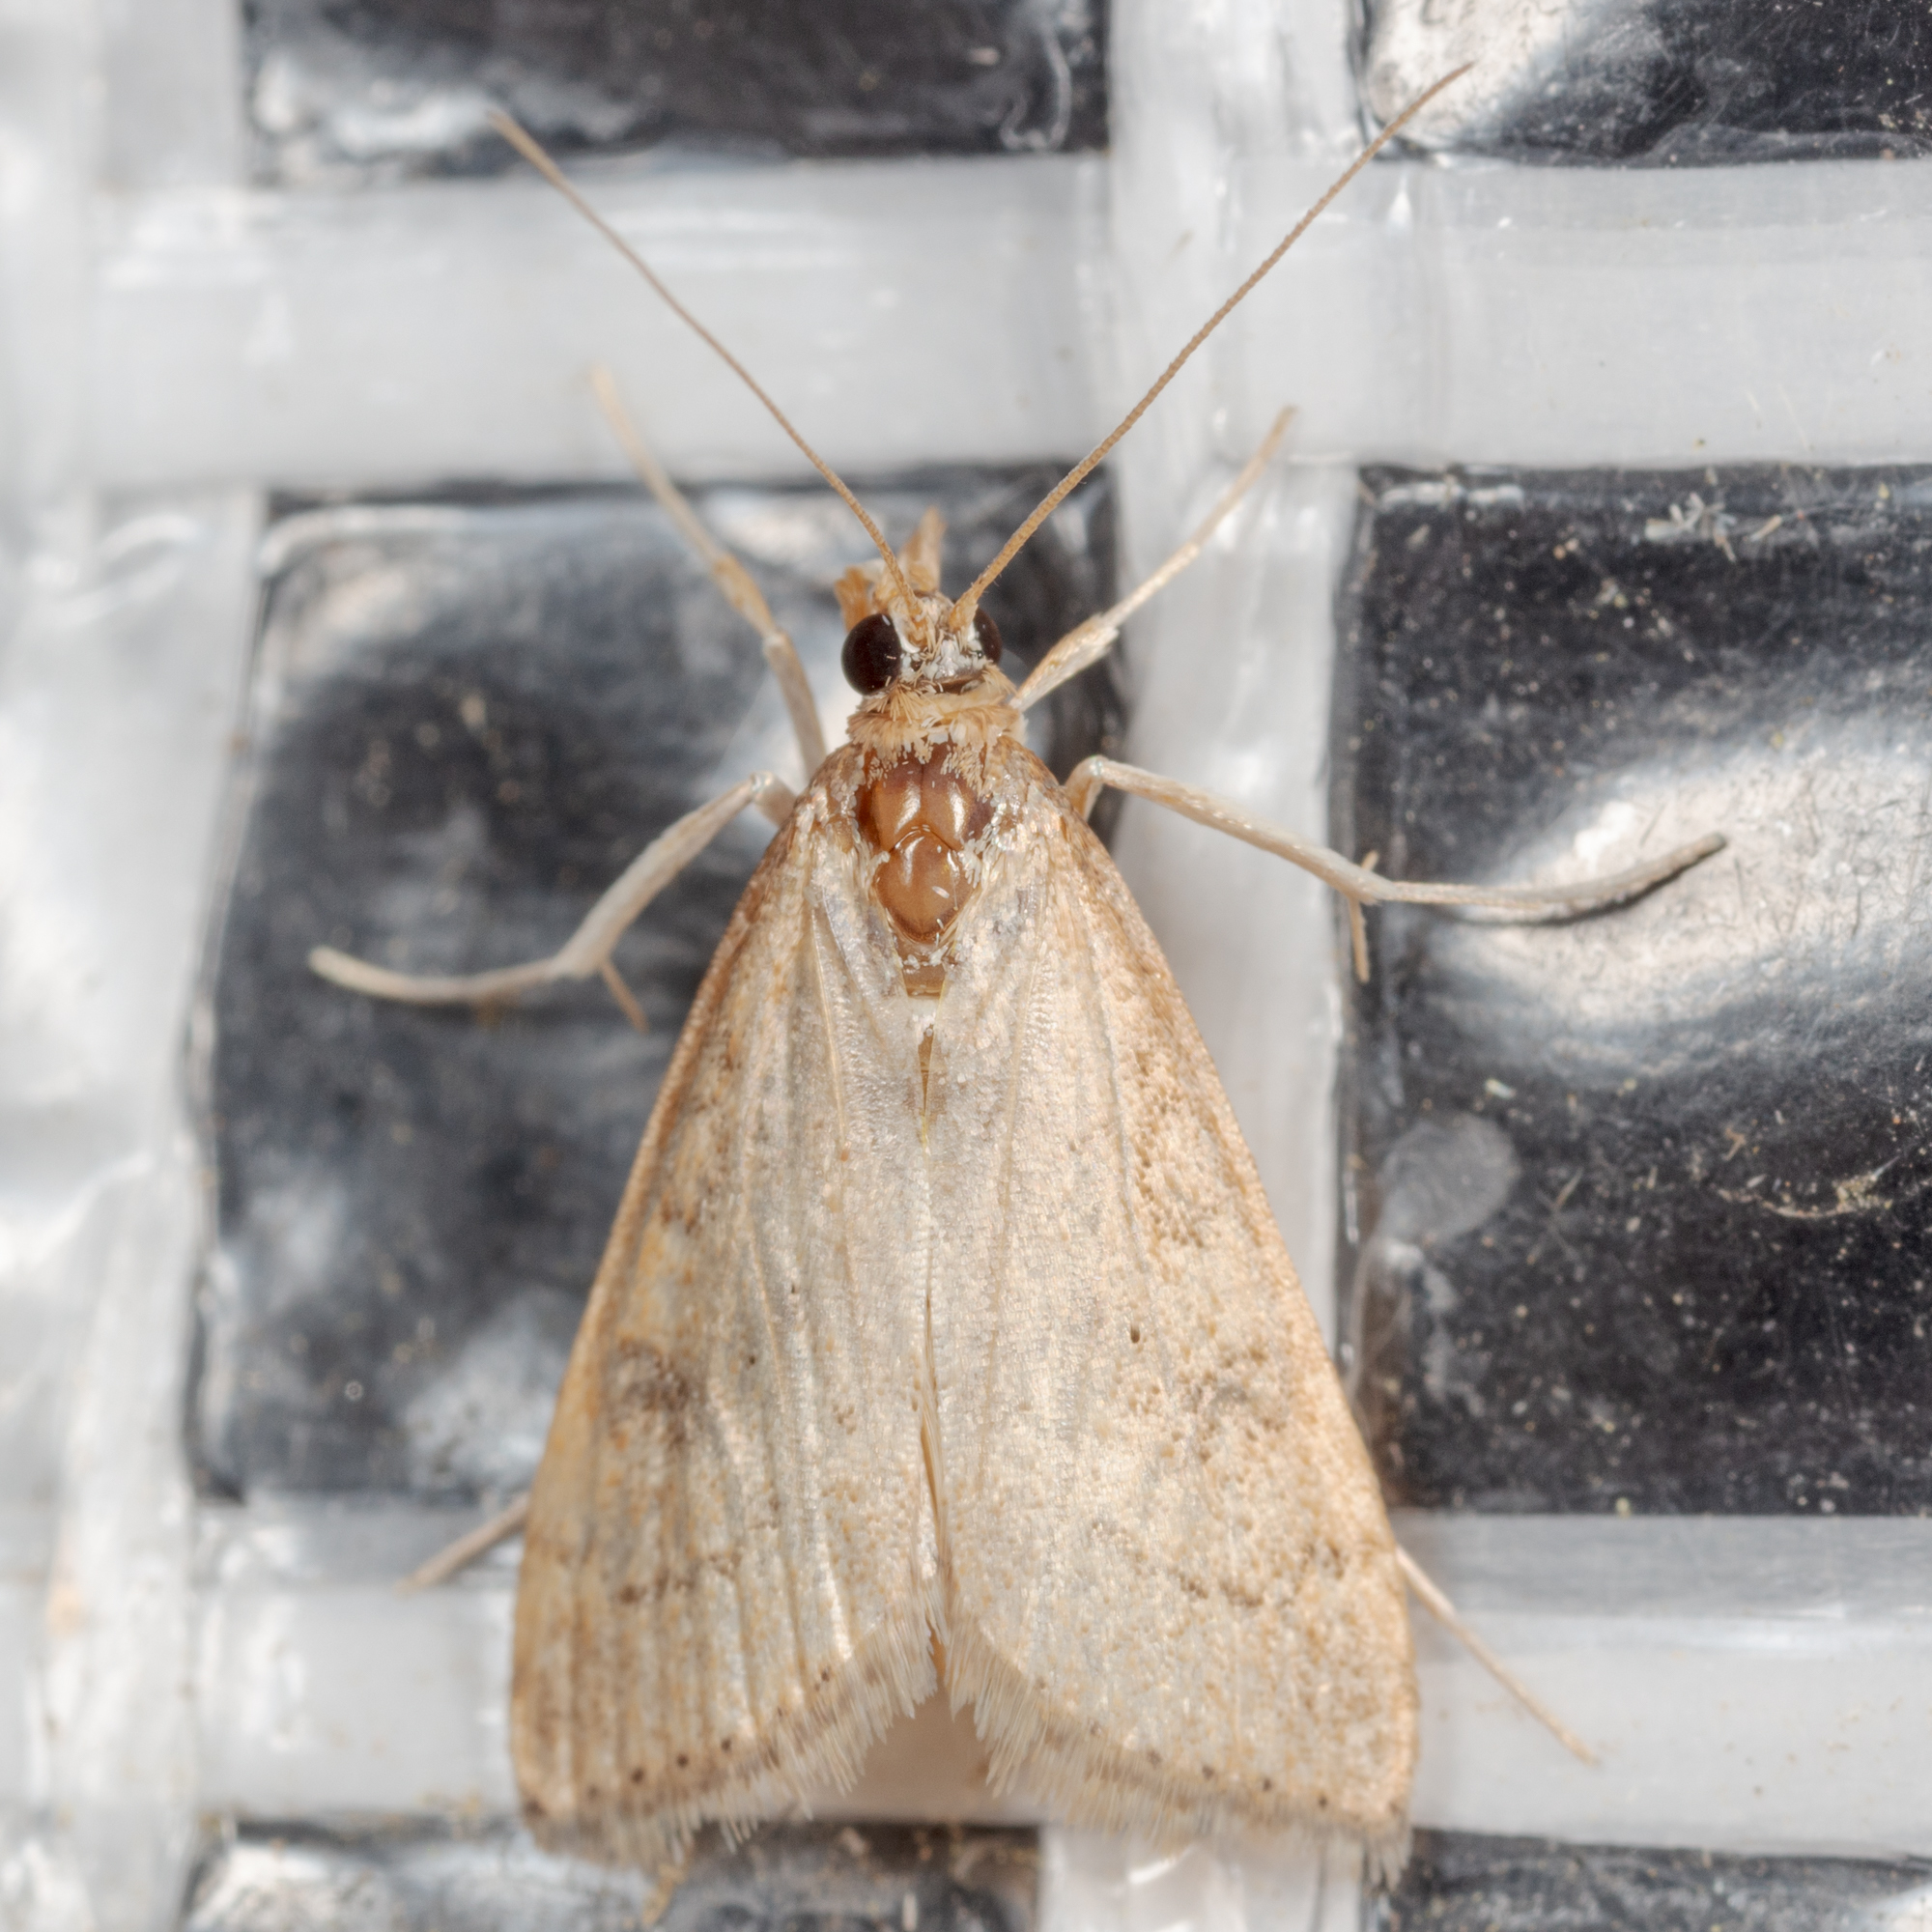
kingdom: Animalia
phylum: Arthropoda
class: Insecta
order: Lepidoptera
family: Crambidae
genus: Udea
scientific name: Udea rubigalis
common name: Celery leaftier moth
